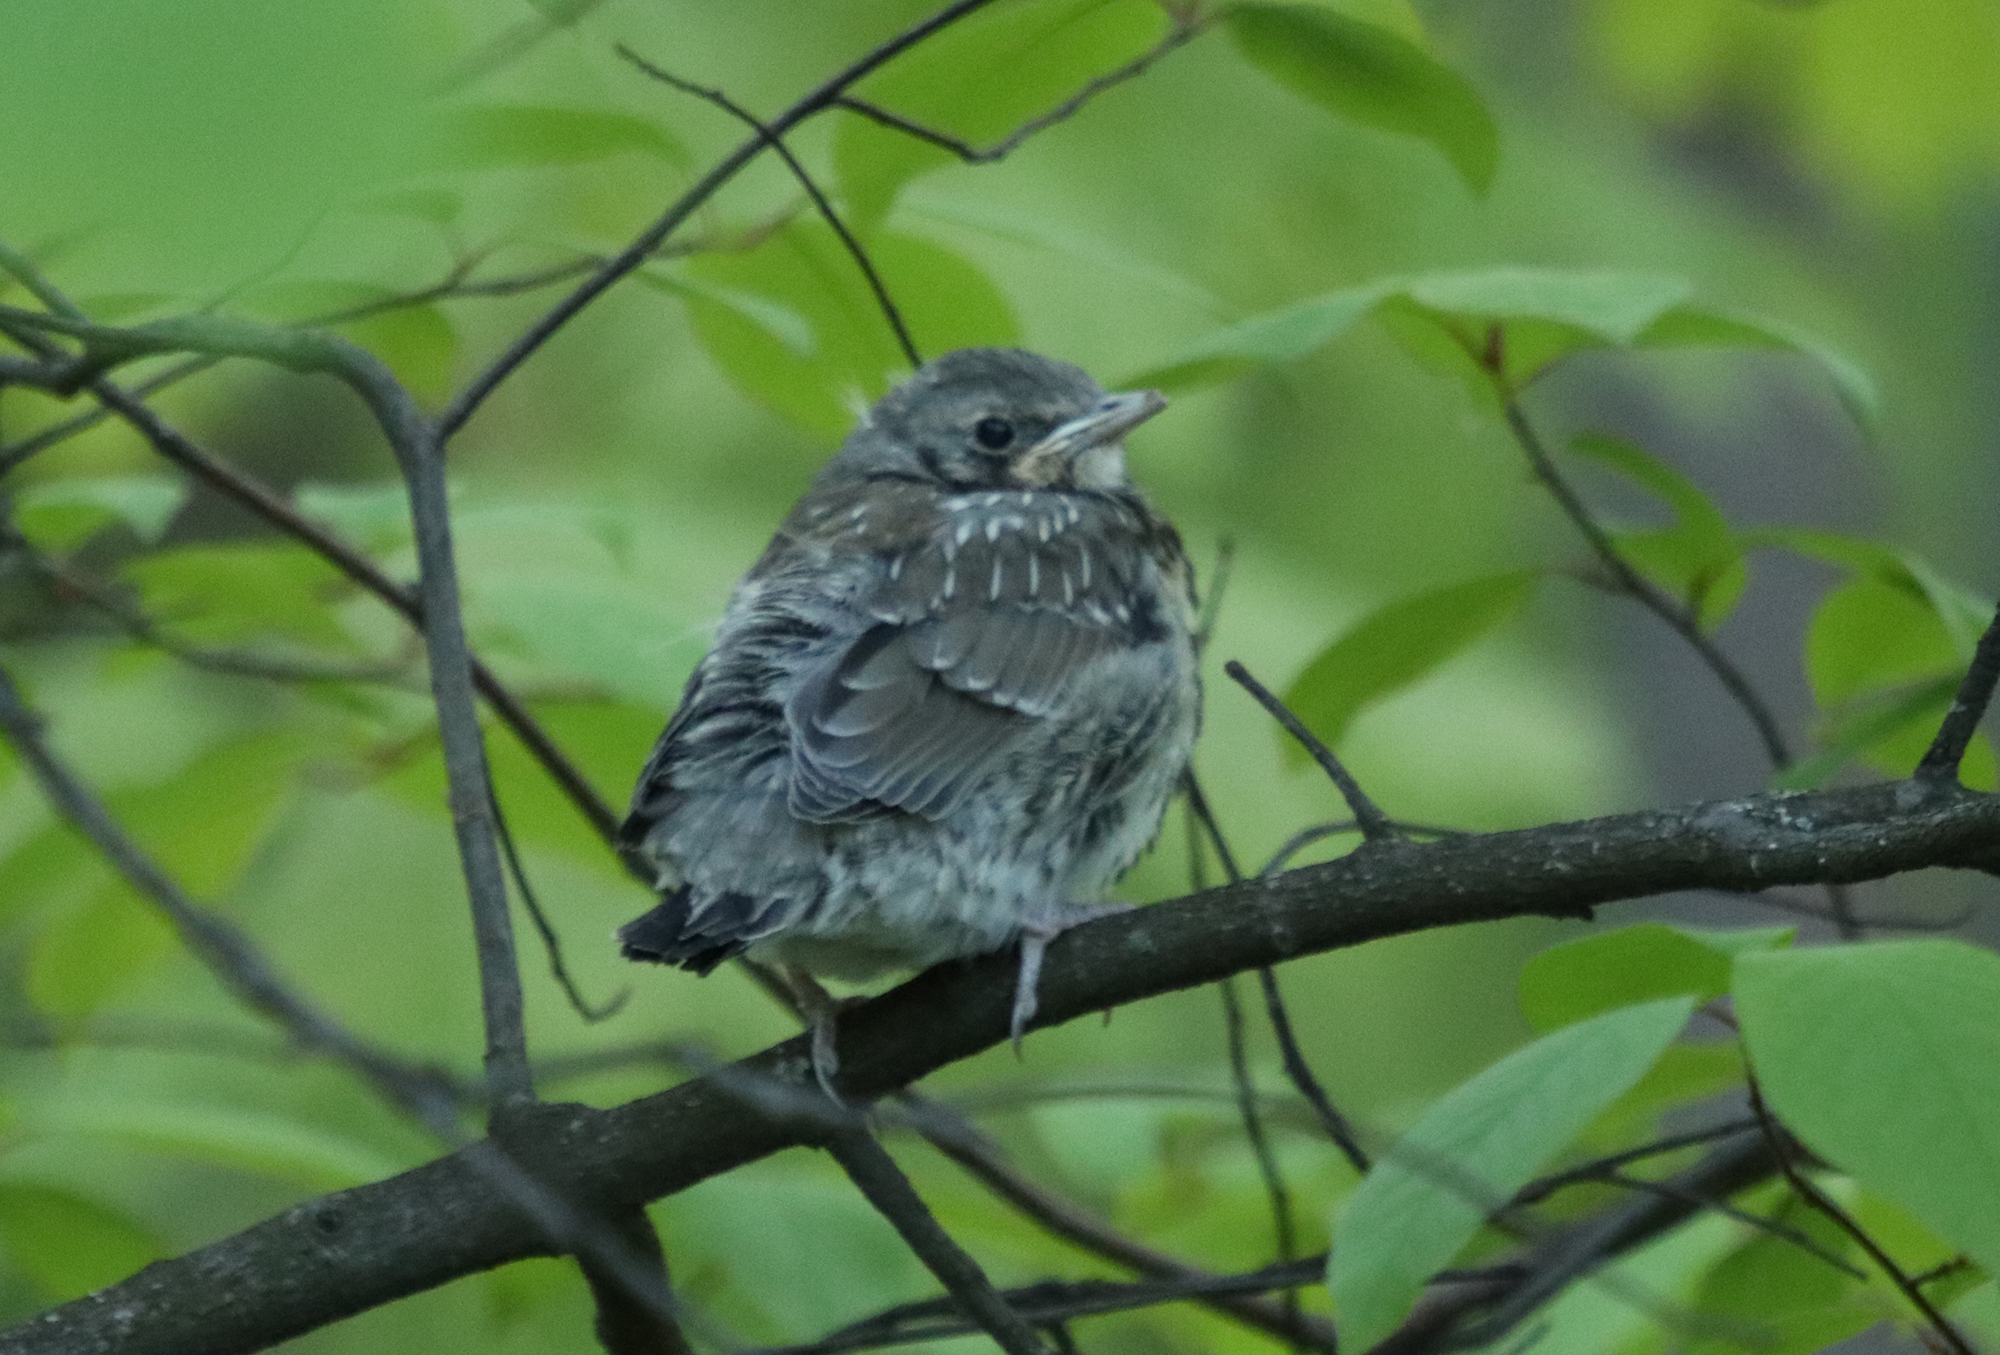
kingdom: Animalia
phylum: Chordata
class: Aves
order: Passeriformes
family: Turdidae
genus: Turdus
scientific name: Turdus pilaris
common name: Fieldfare
